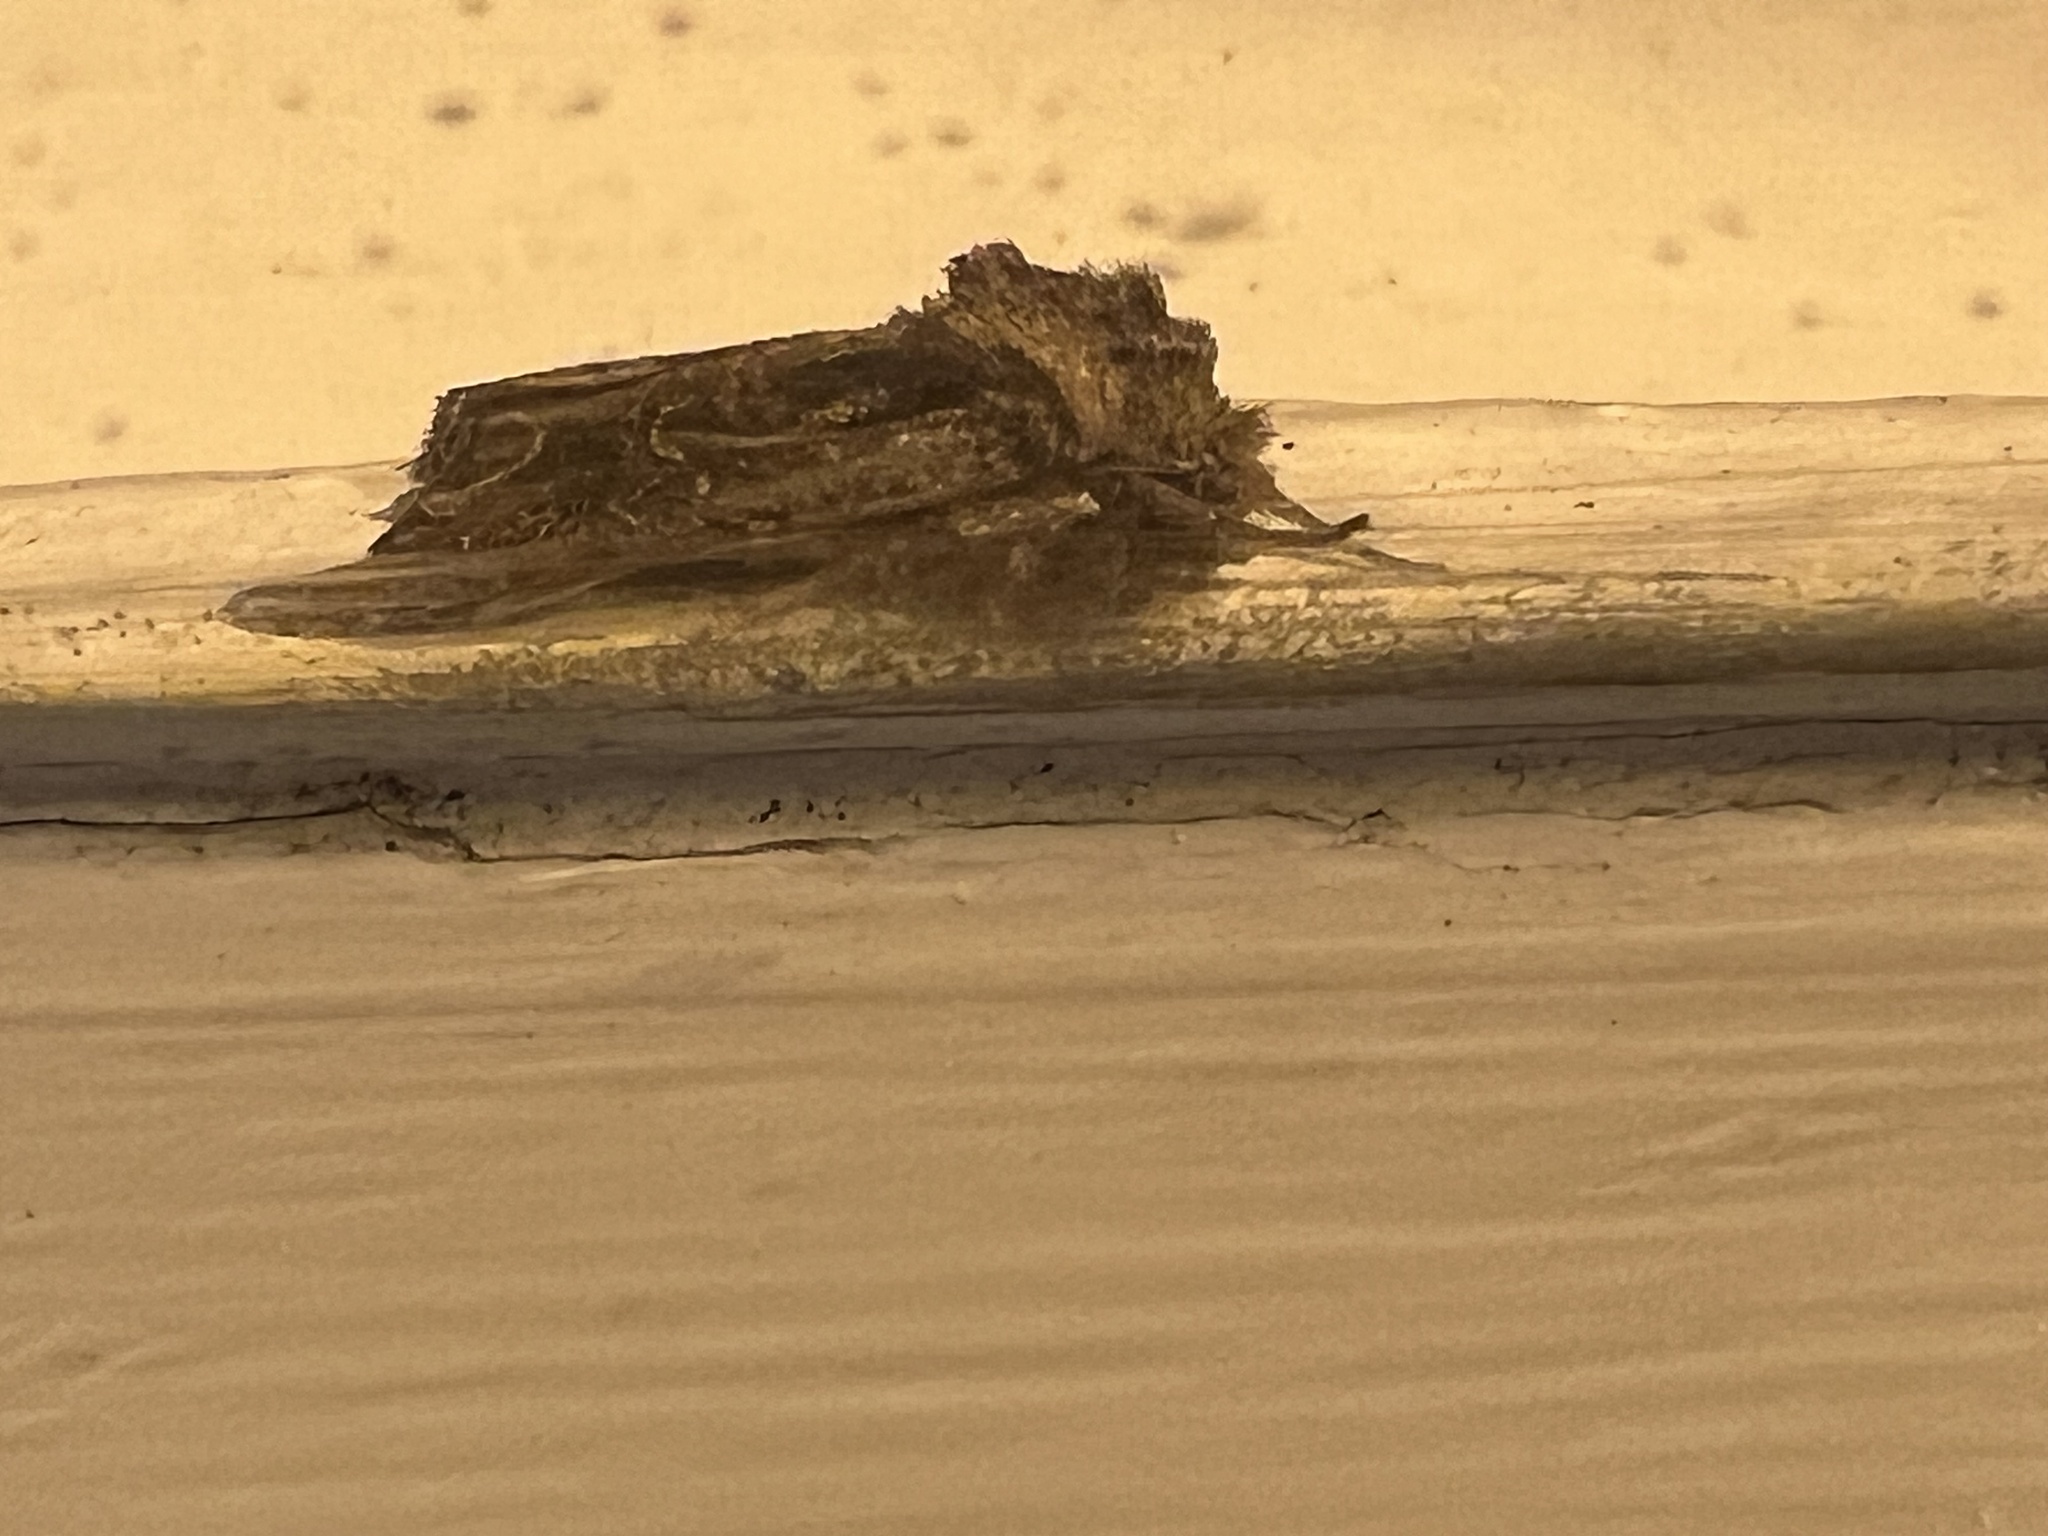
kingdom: Animalia
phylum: Arthropoda
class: Insecta
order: Lepidoptera
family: Noctuidae
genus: Ichneutica
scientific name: Ichneutica
